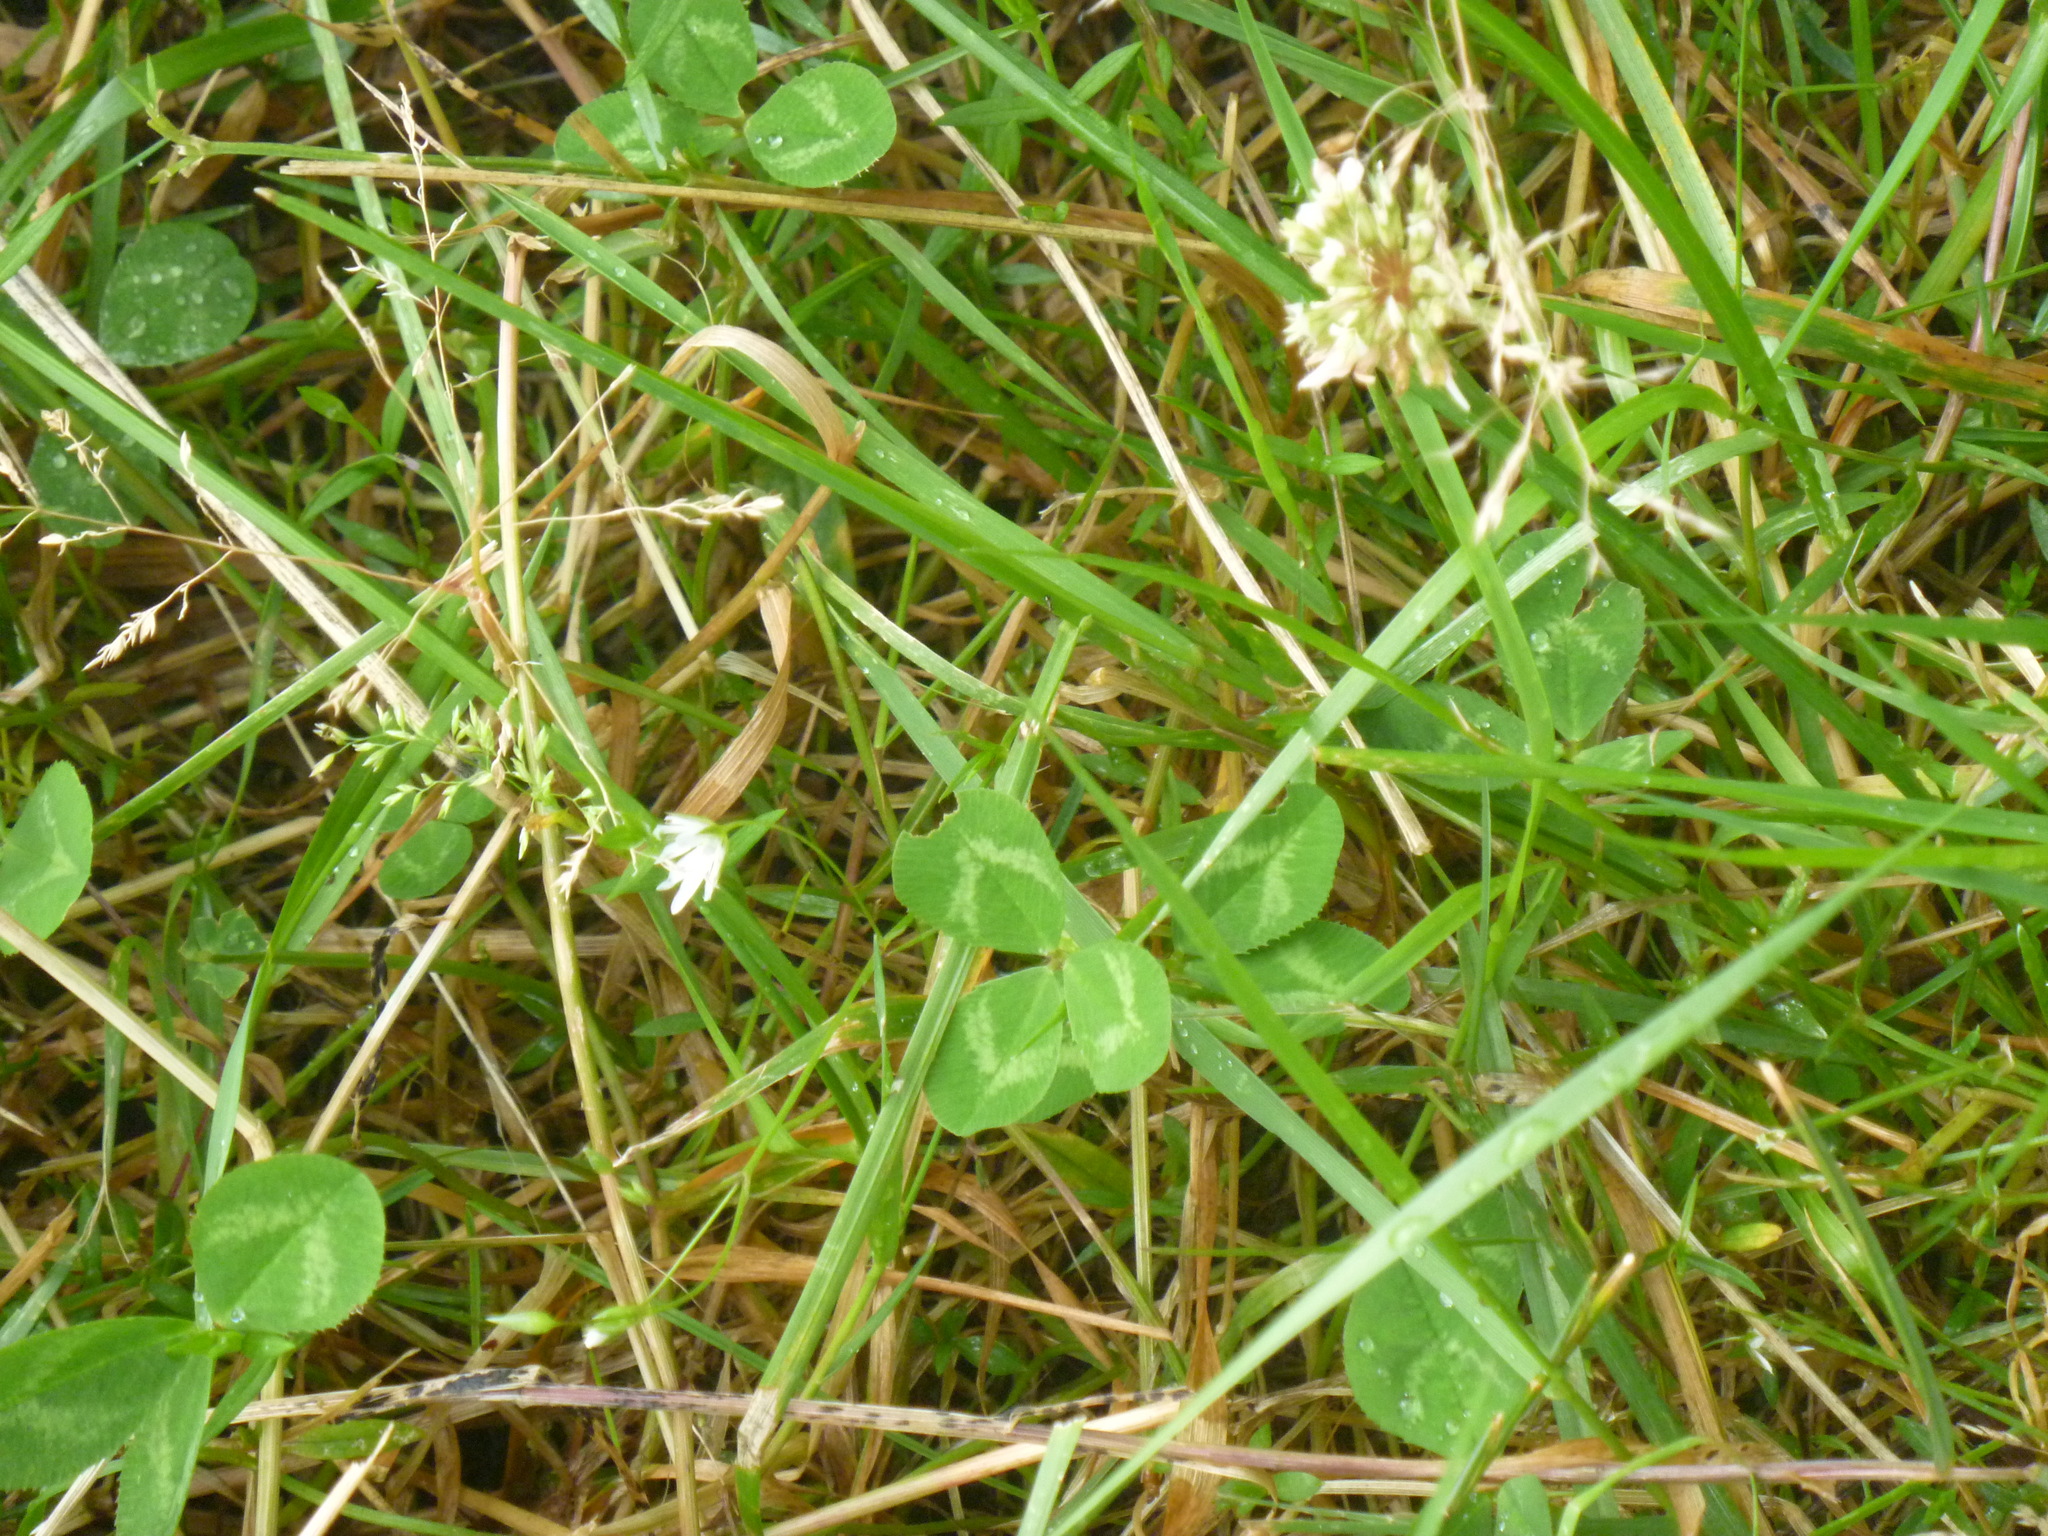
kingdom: Plantae
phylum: Tracheophyta
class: Magnoliopsida
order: Fabales
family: Fabaceae
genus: Trifolium
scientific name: Trifolium repens
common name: White clover
